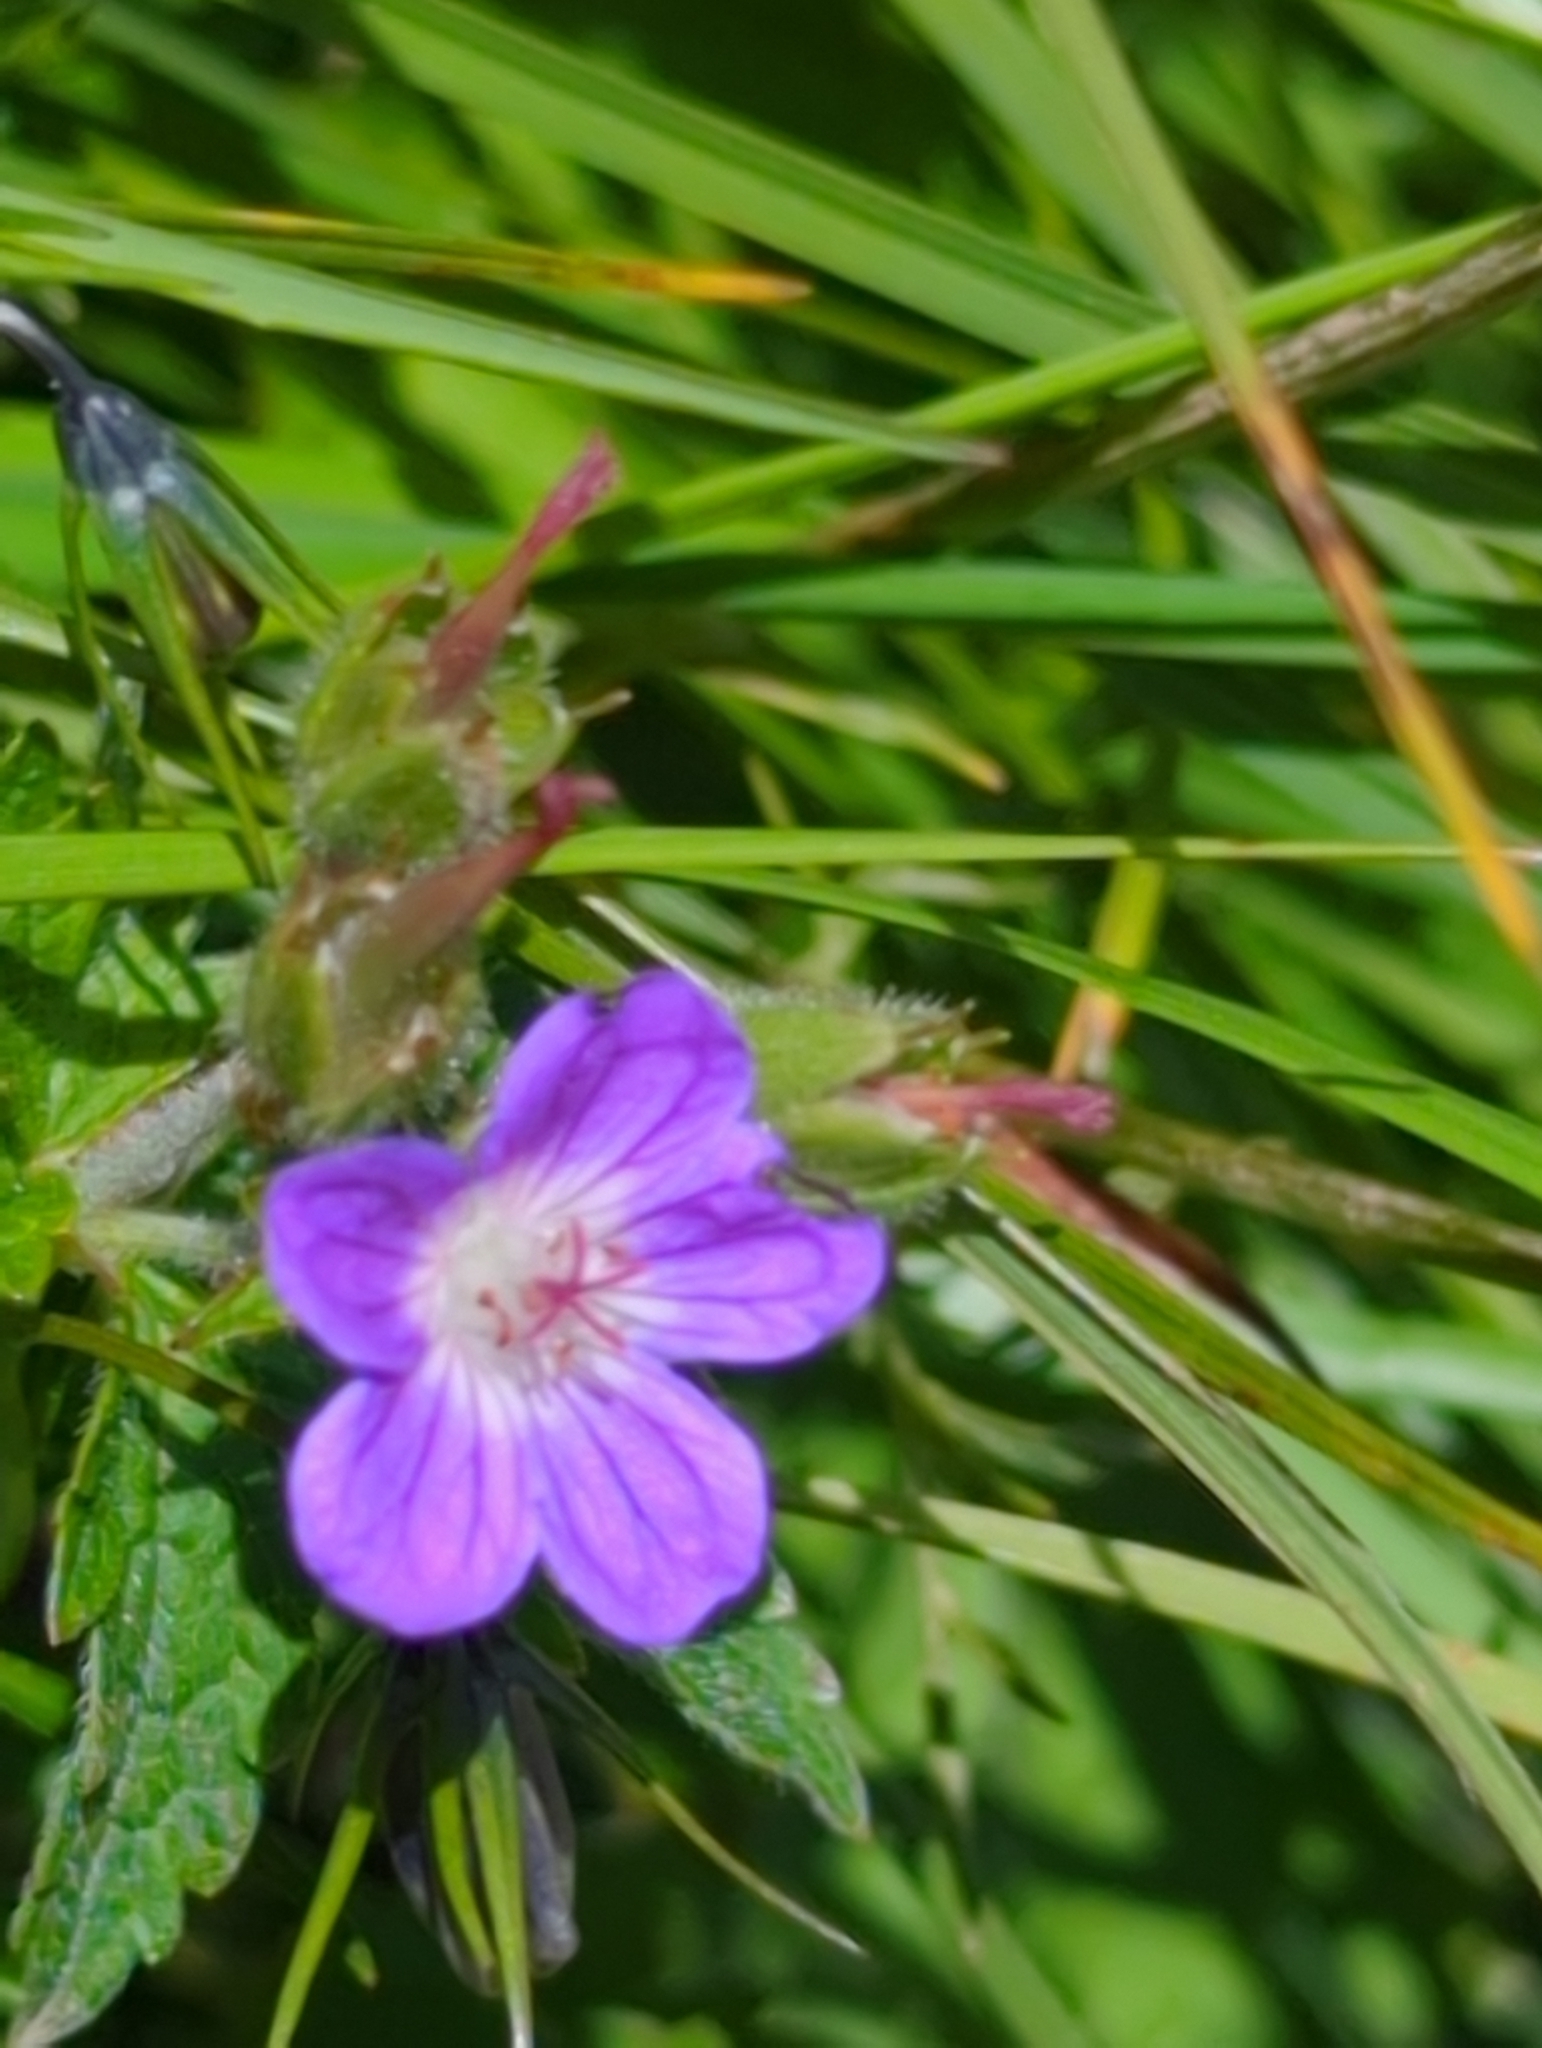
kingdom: Plantae
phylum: Tracheophyta
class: Magnoliopsida
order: Geraniales
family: Geraniaceae
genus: Geranium
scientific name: Geranium sylvaticum
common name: Wood crane's-bill
